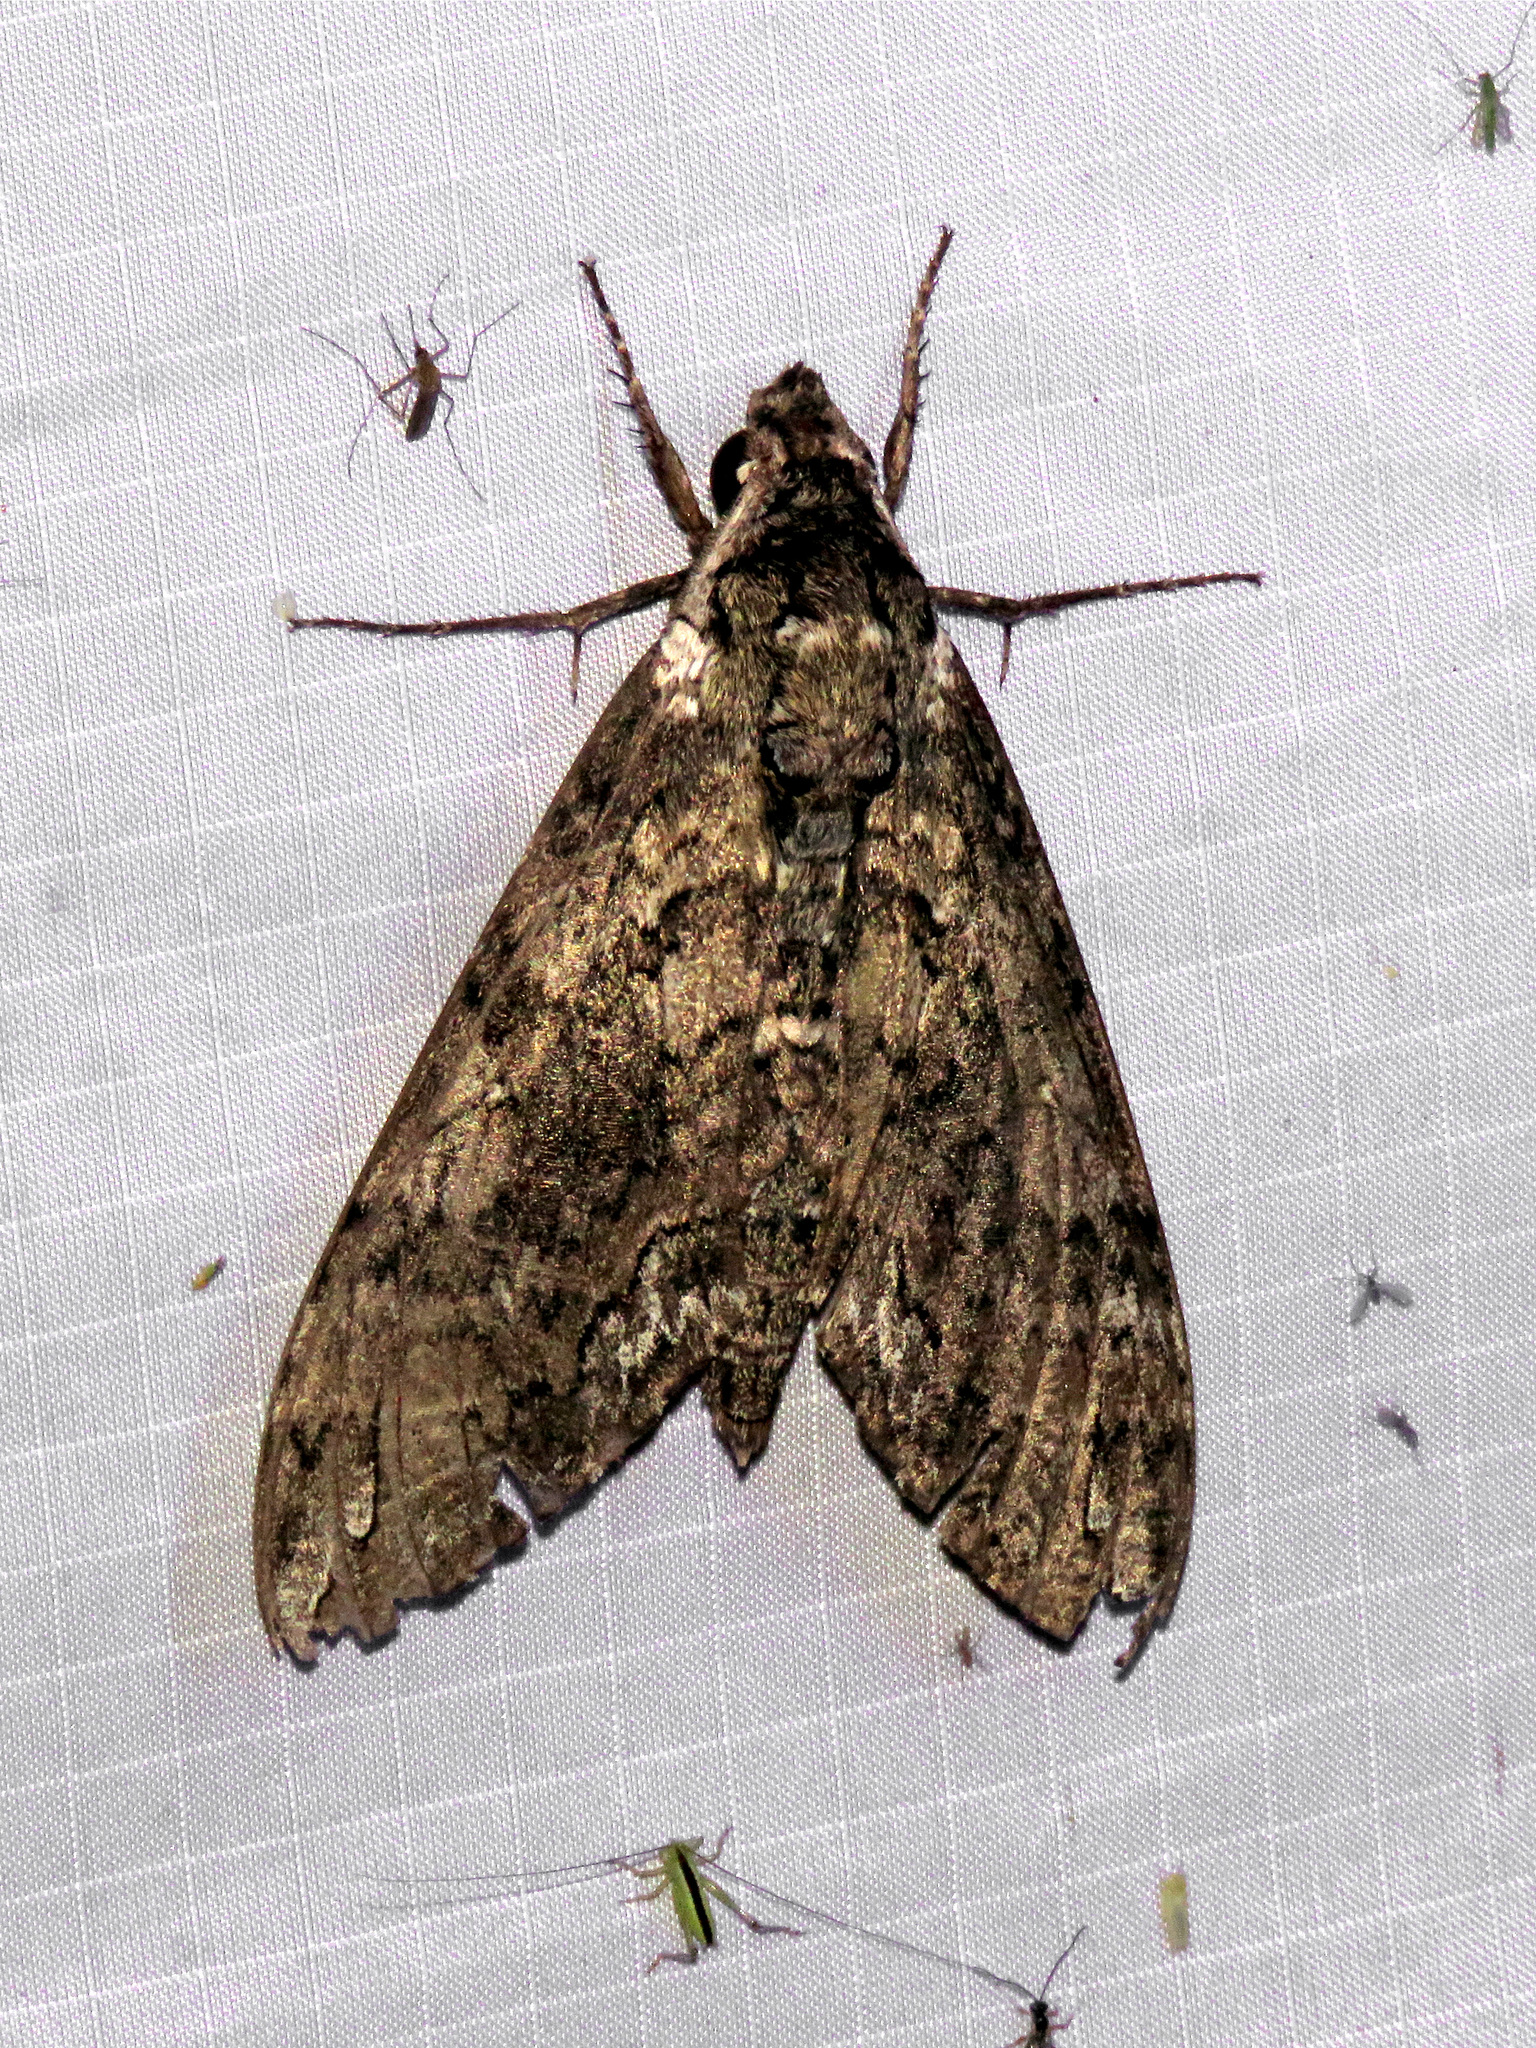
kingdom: Animalia
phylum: Arthropoda
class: Insecta
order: Lepidoptera
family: Sphingidae
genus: Manduca
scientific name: Manduca sexta
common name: Carolina sphinx
